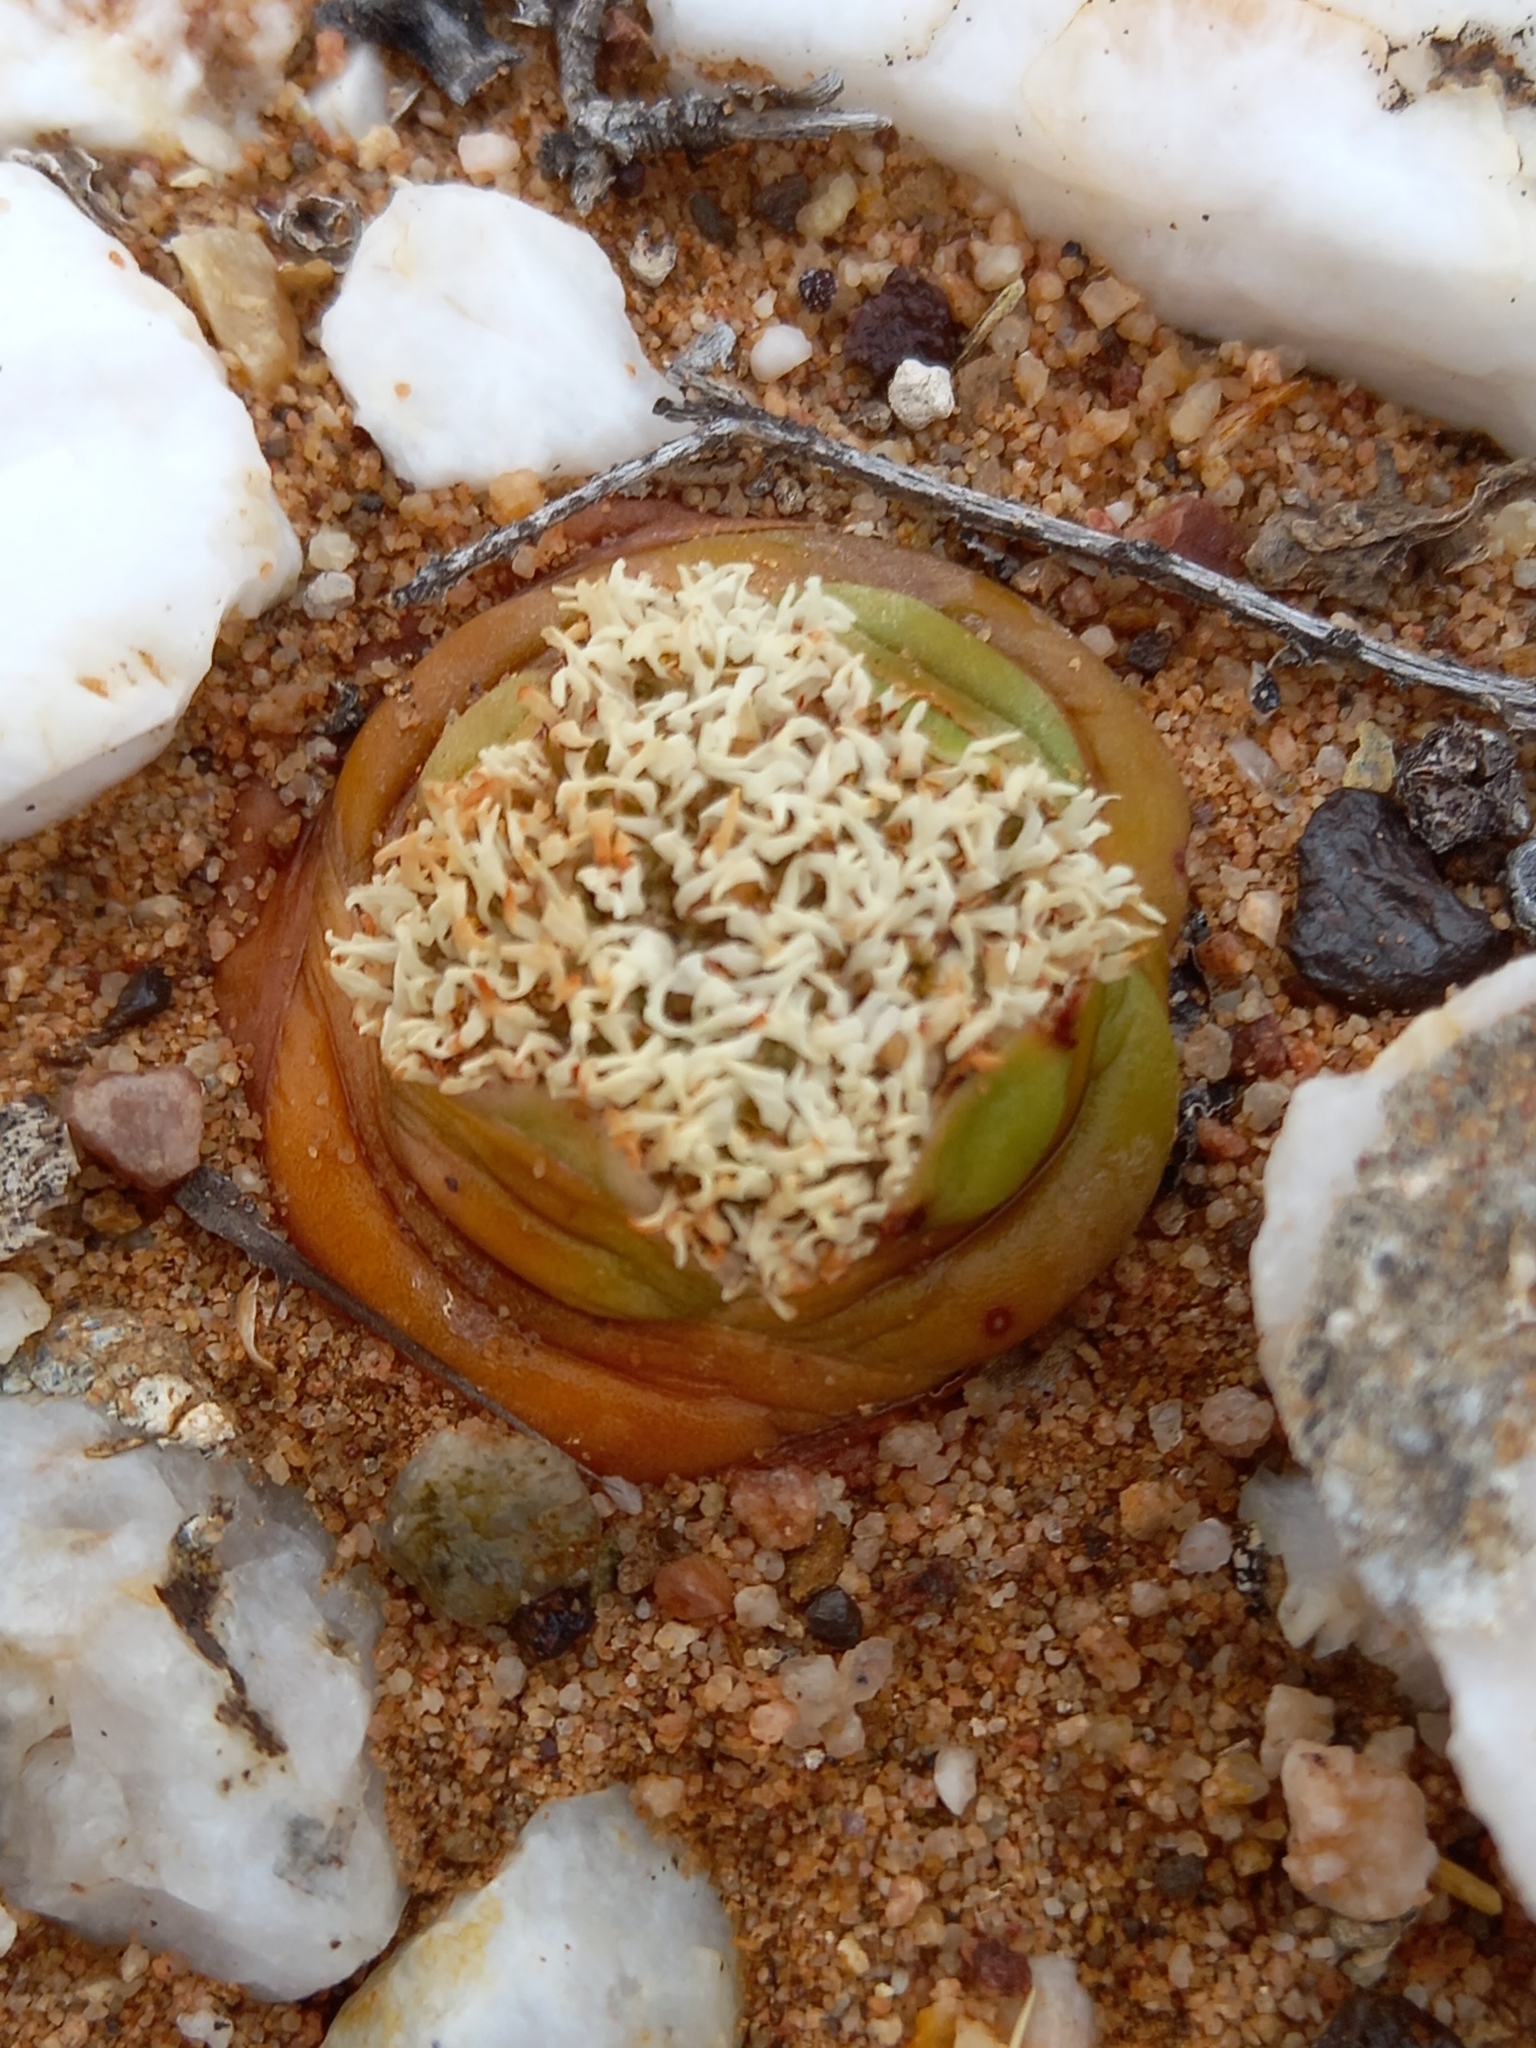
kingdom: Plantae
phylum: Tracheophyta
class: Magnoliopsida
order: Saxifragales
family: Crassulaceae
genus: Crassula
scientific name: Crassula columnaris
